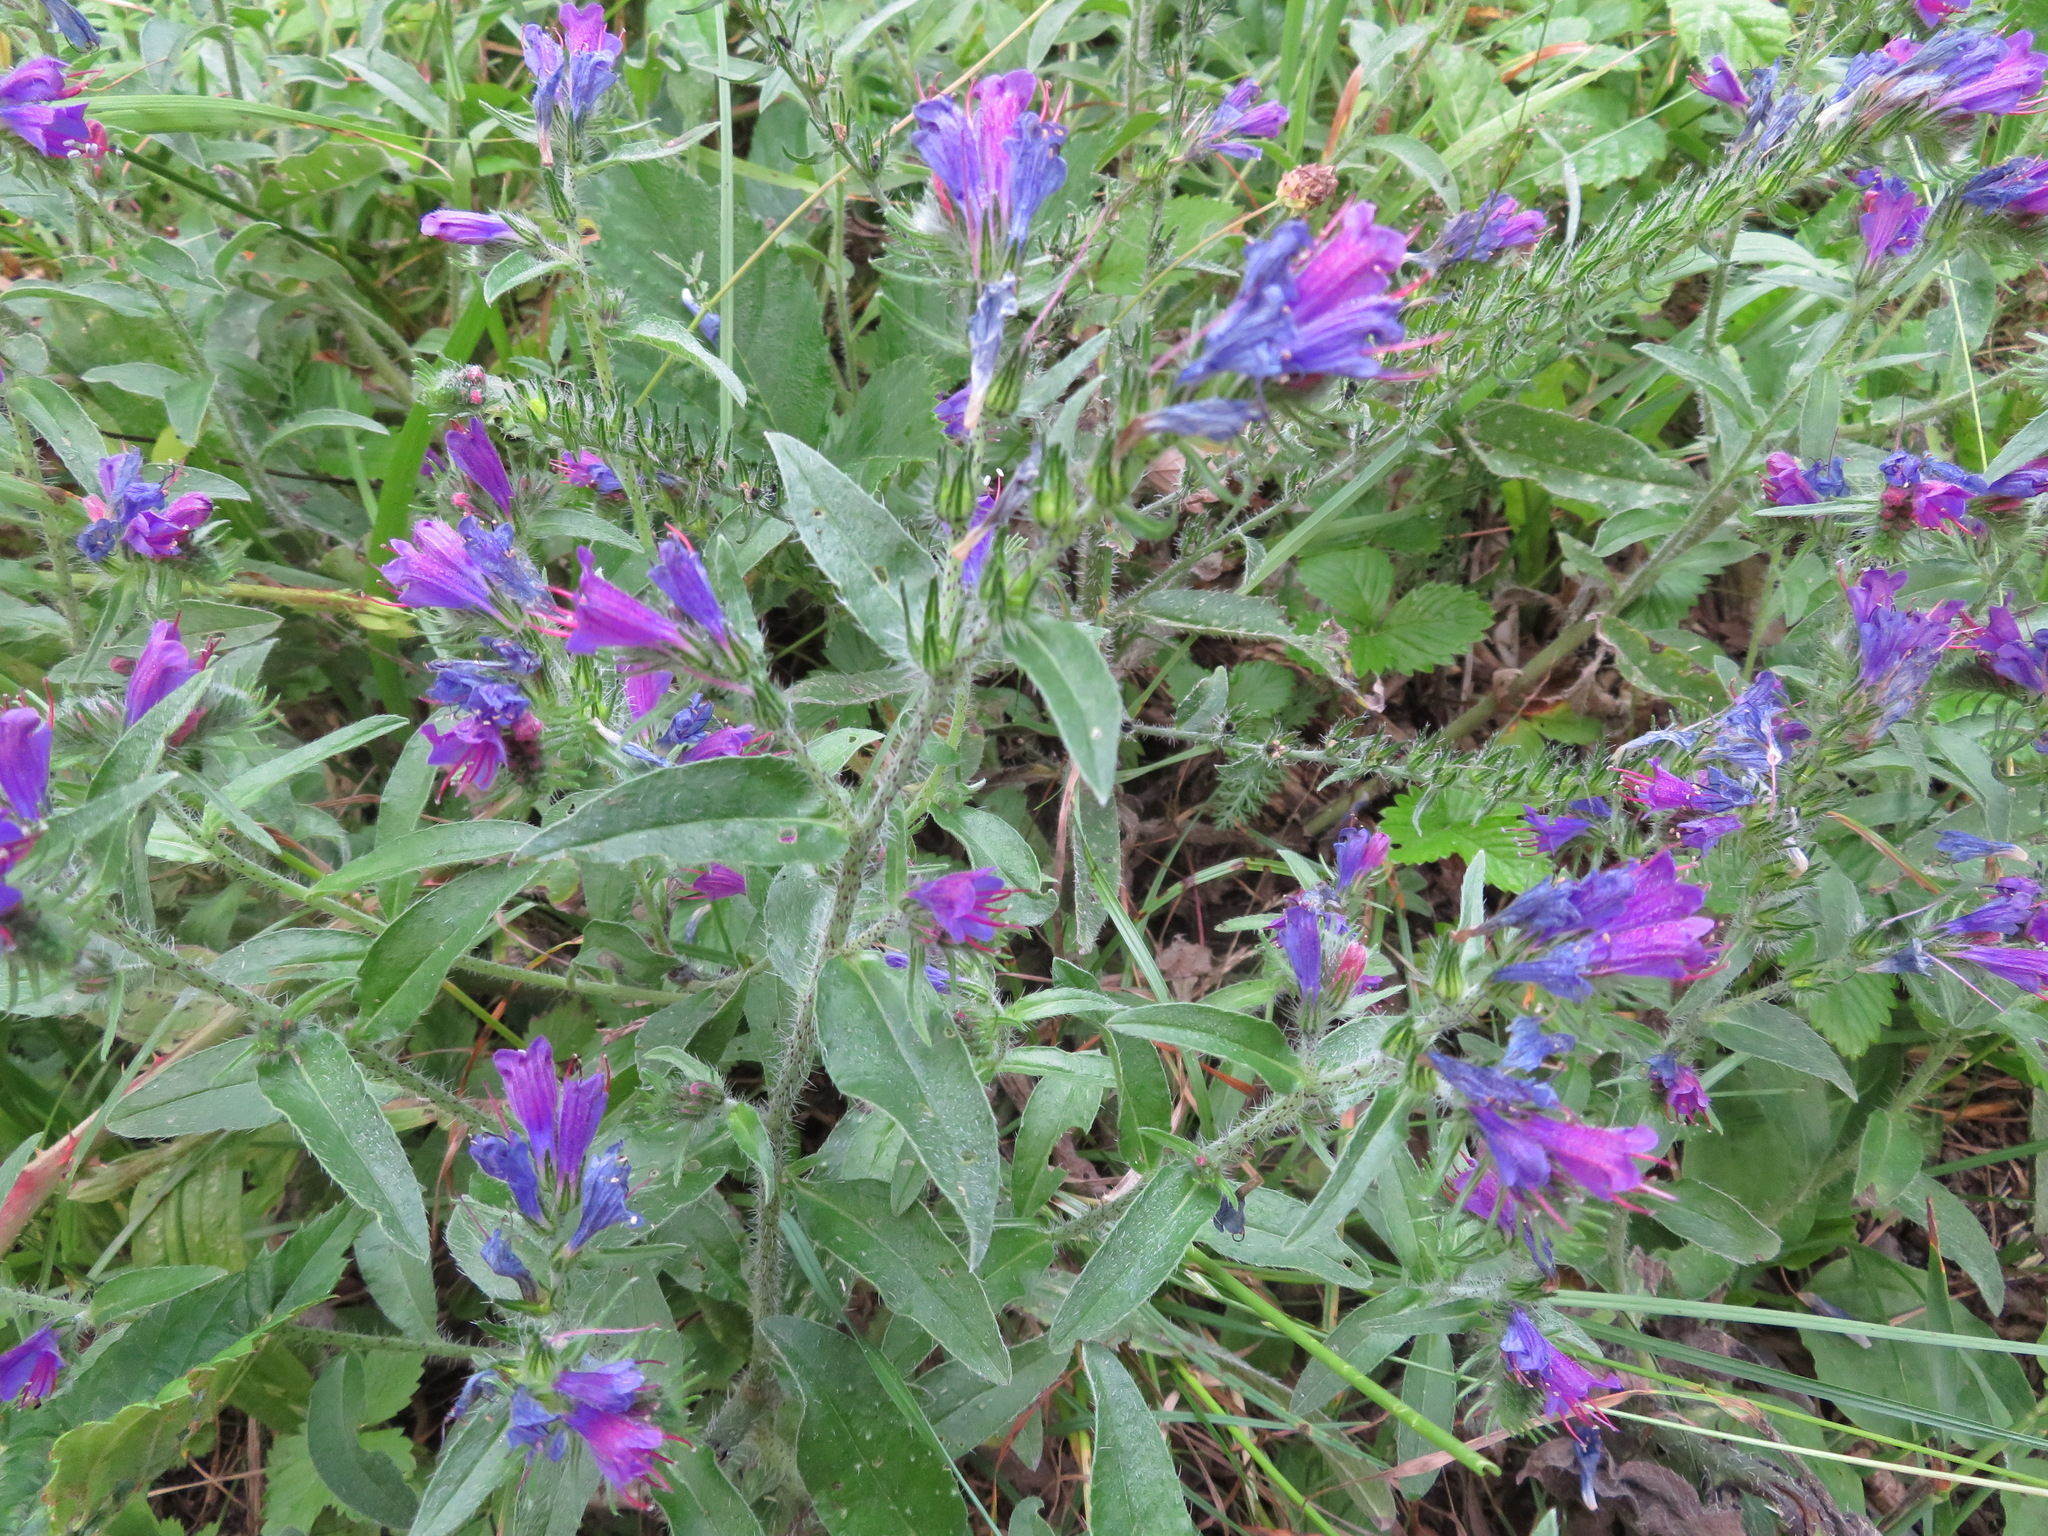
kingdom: Plantae
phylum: Tracheophyta
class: Magnoliopsida
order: Boraginales
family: Boraginaceae
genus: Echium
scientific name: Echium vulgare
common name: Common viper's bugloss
